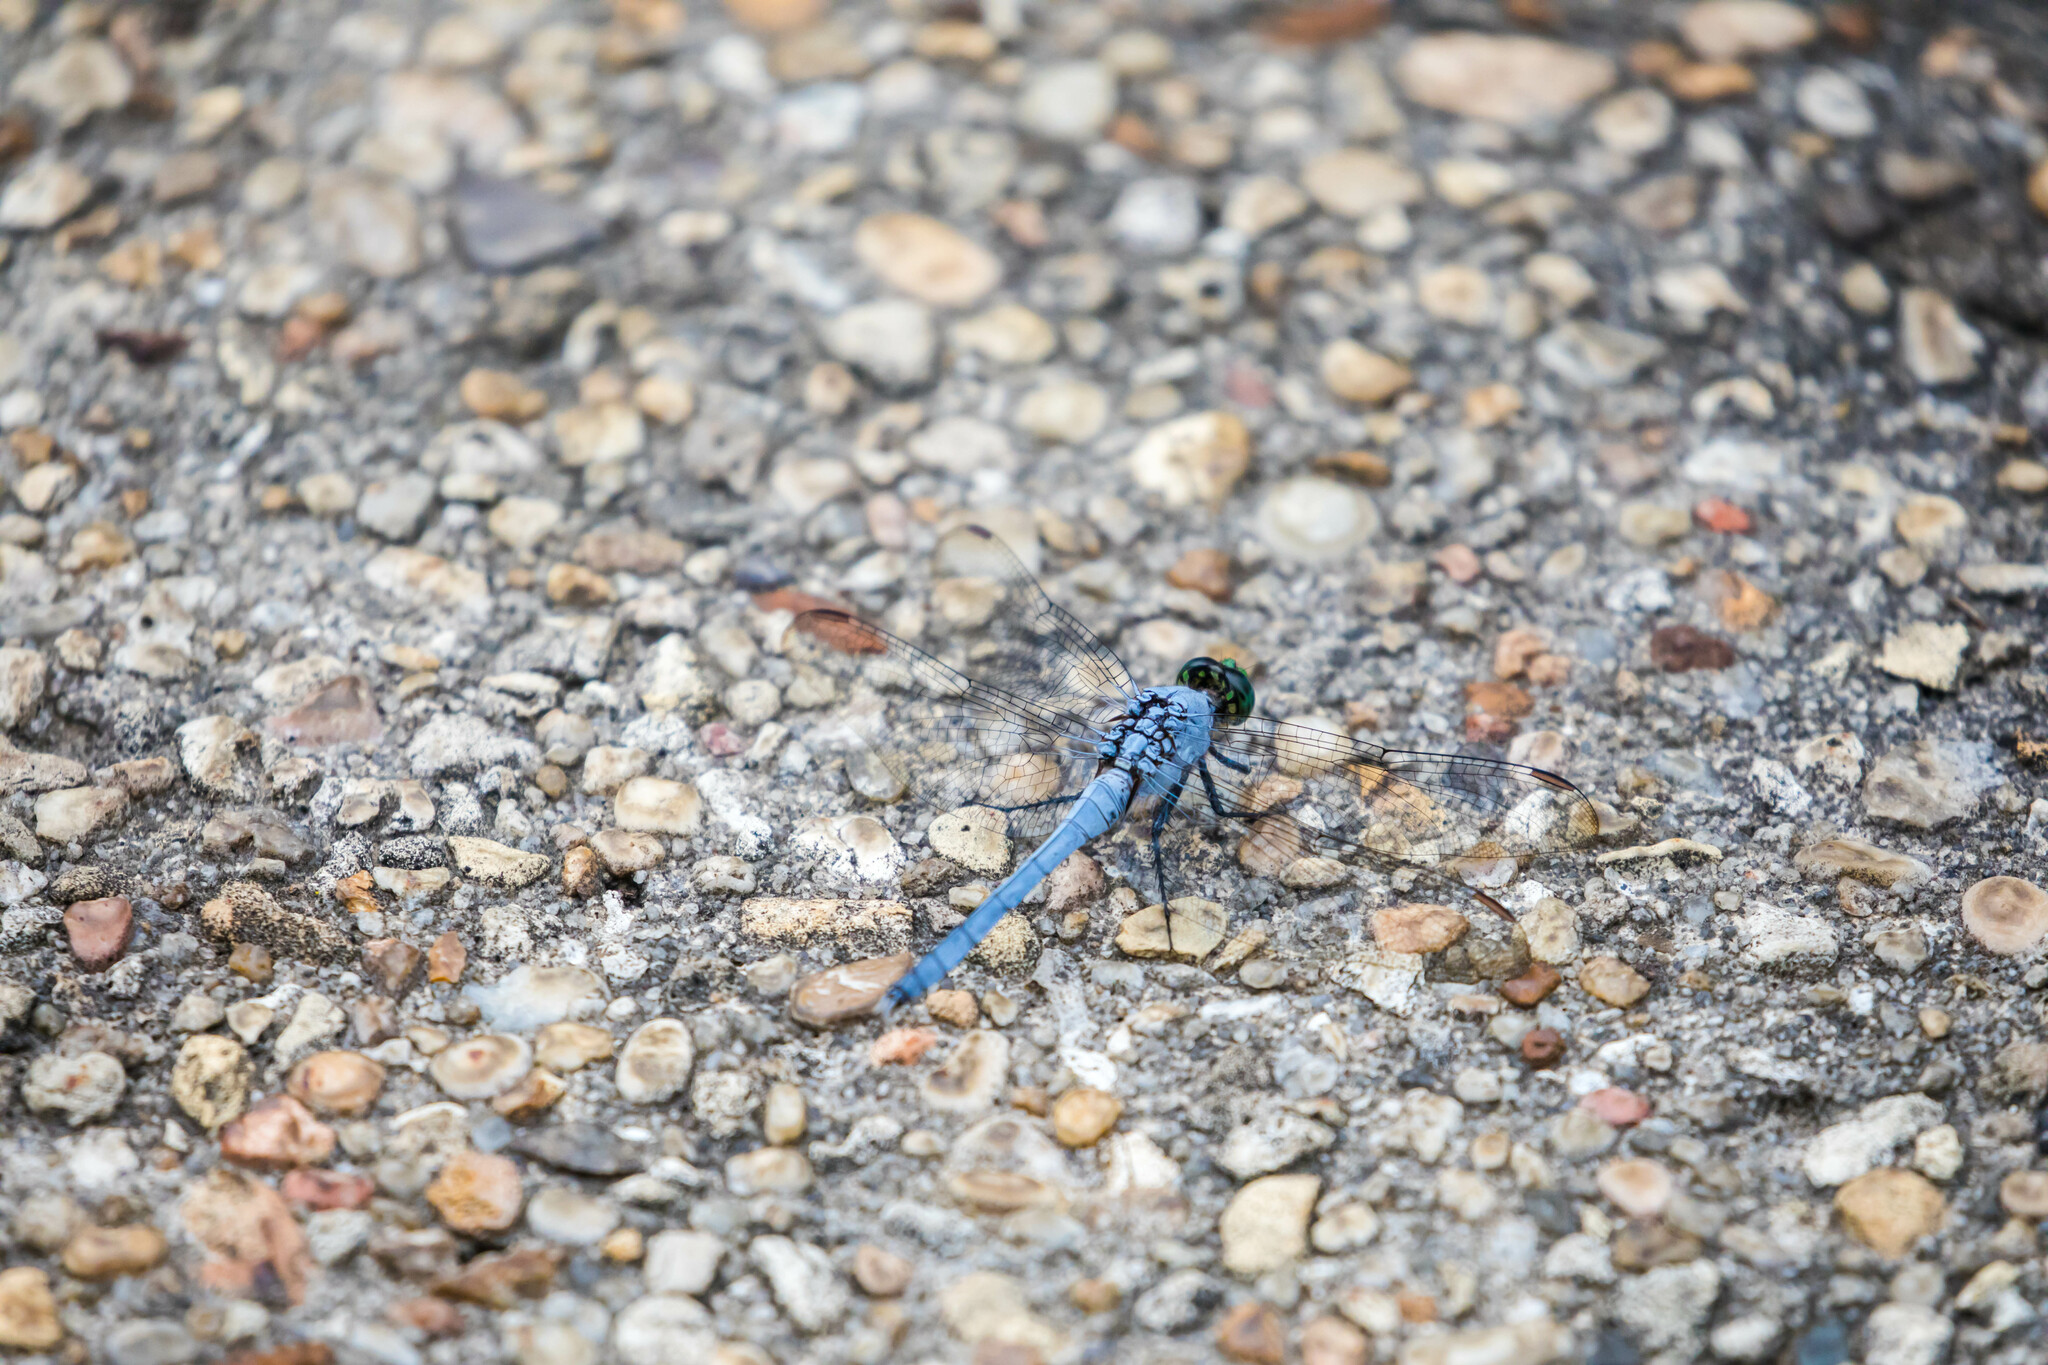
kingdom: Animalia
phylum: Arthropoda
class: Insecta
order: Odonata
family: Libellulidae
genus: Erythemis
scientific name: Erythemis simplicicollis
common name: Eastern pondhawk
